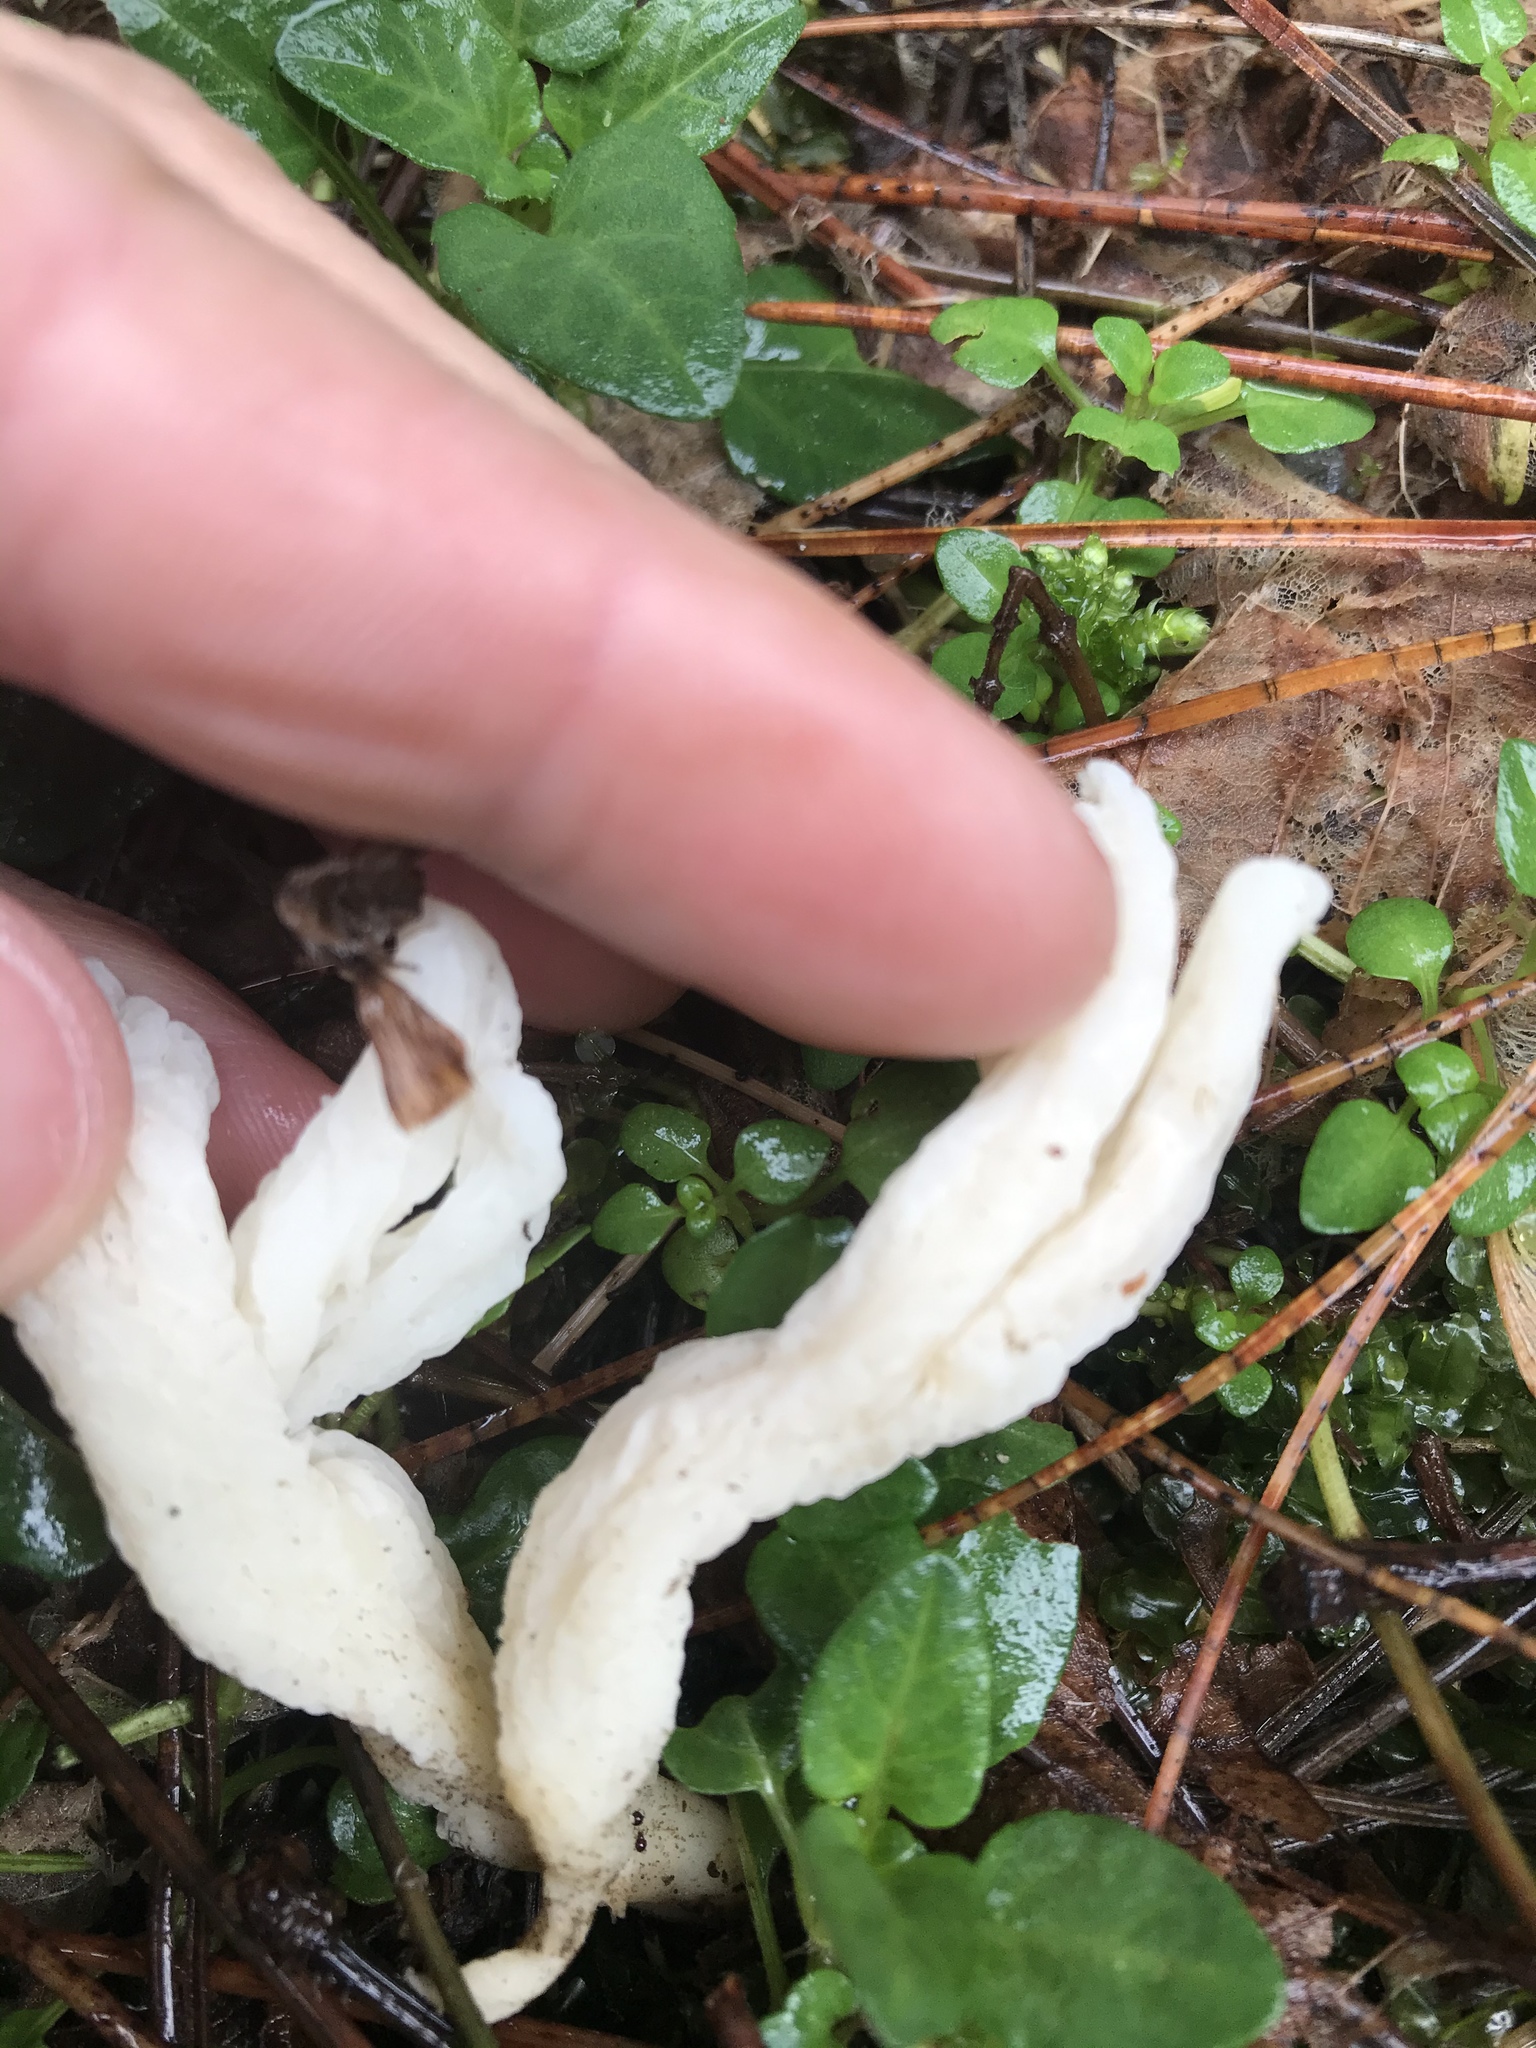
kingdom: Fungi
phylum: Basidiomycota
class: Agaricomycetes
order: Cantharellales
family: Hydnaceae
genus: Clavulina
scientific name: Clavulina rugosa
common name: Wrinkled club
